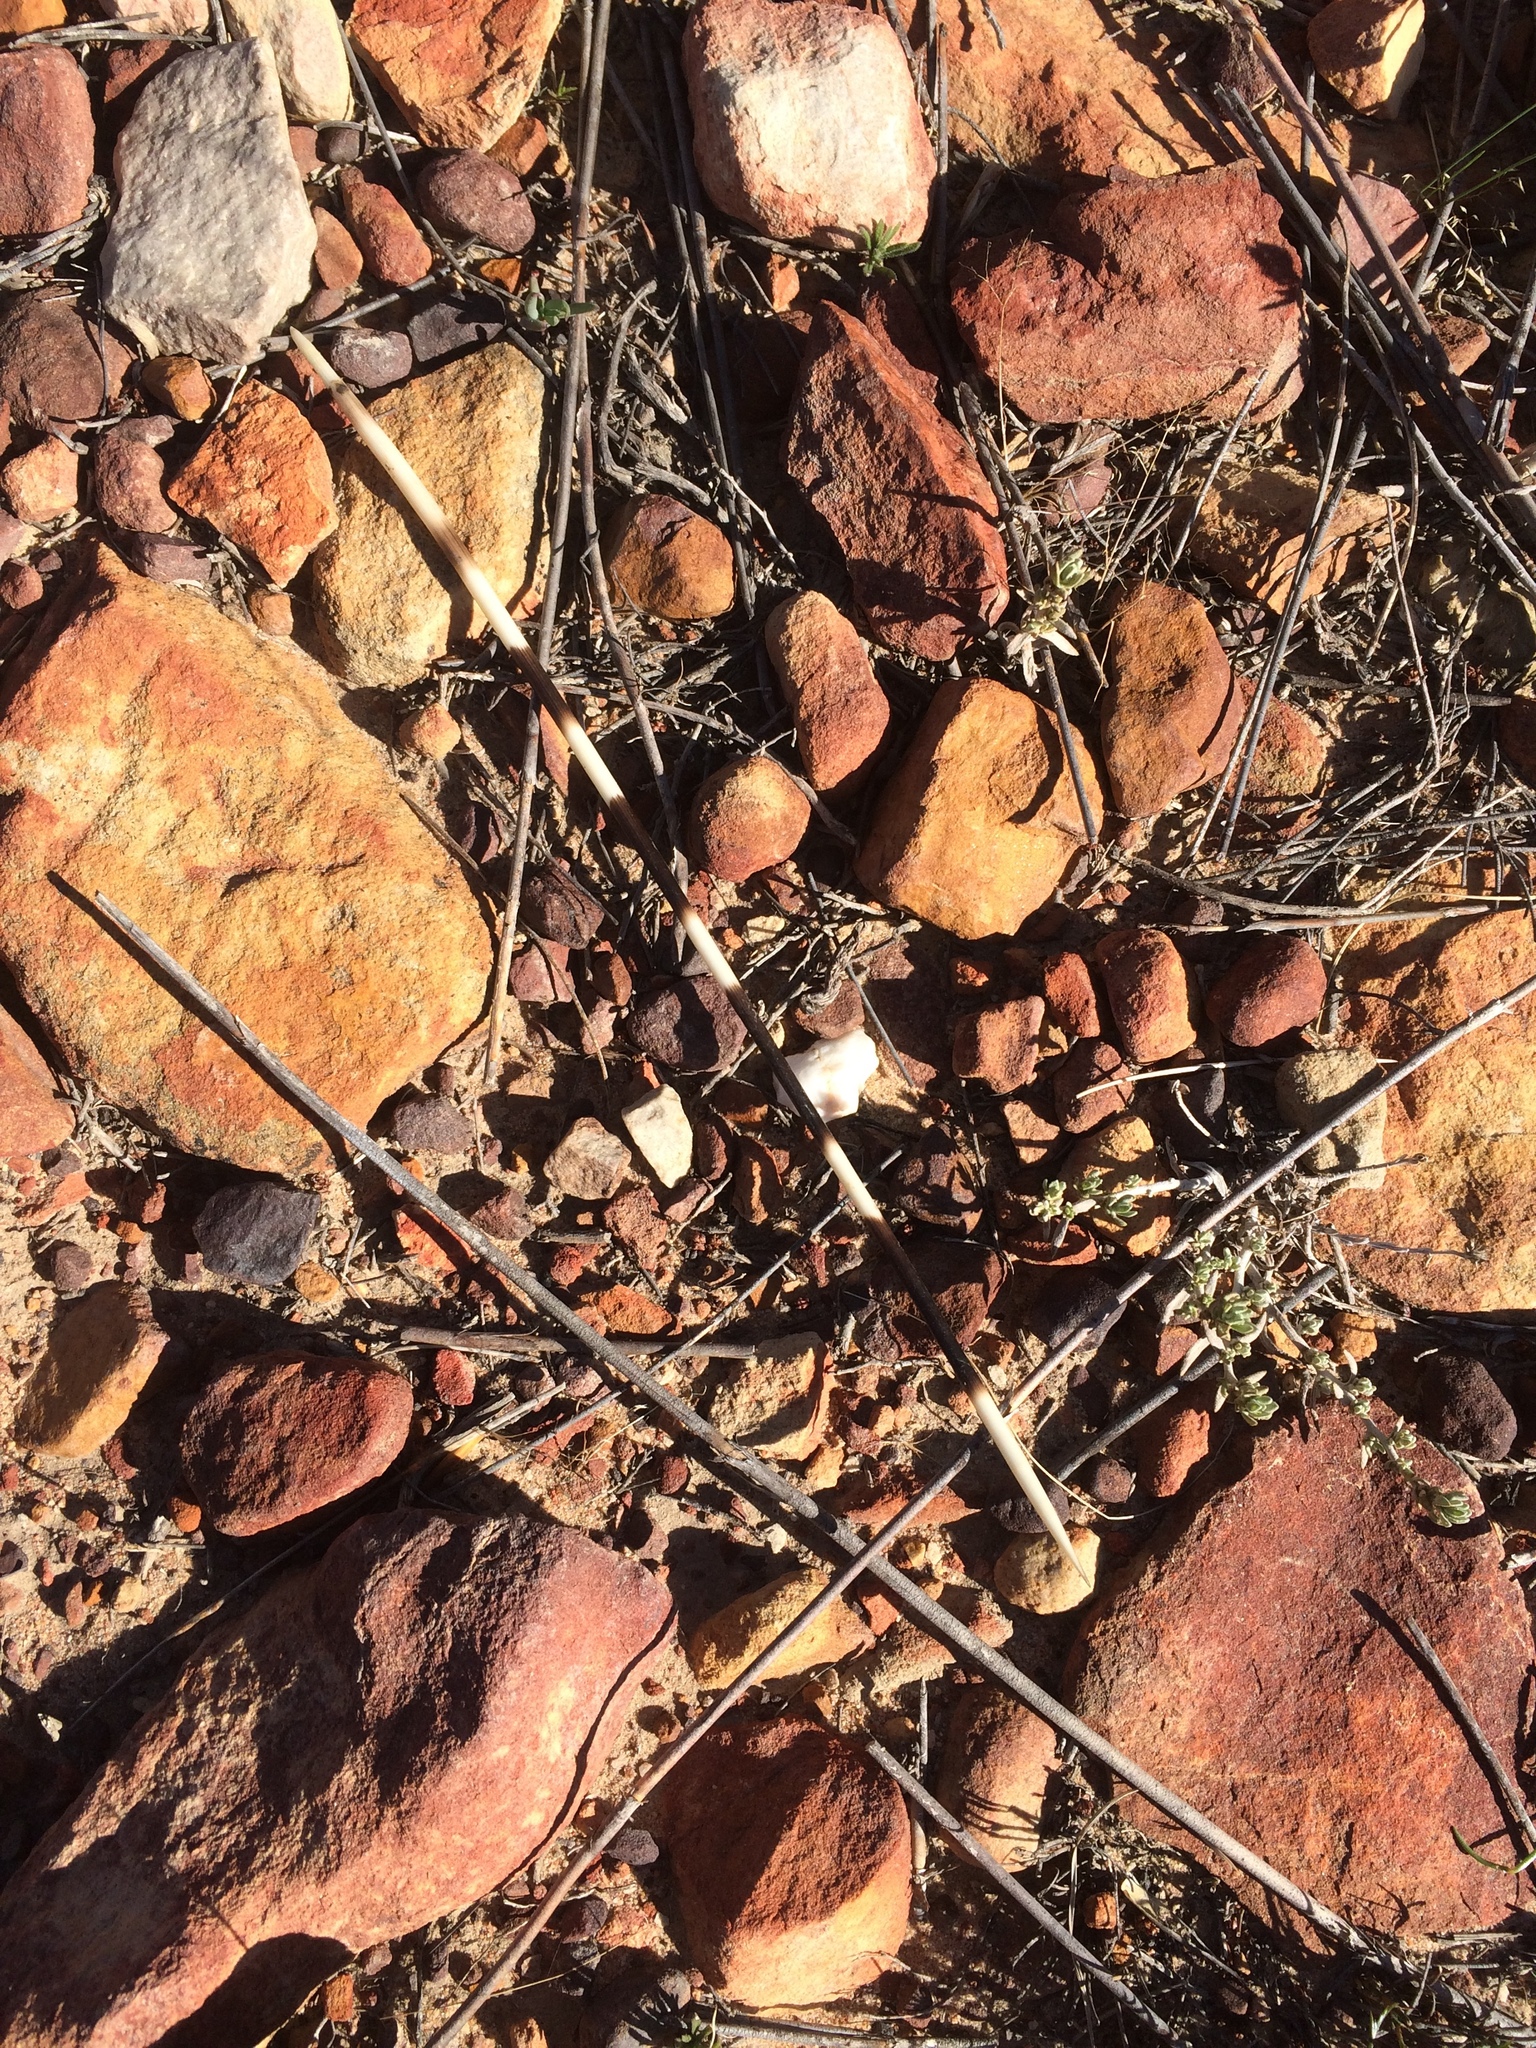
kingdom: Animalia
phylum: Chordata
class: Mammalia
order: Rodentia
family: Hystricidae
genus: Hystrix
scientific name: Hystrix africaeaustralis
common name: Cape porcupine
